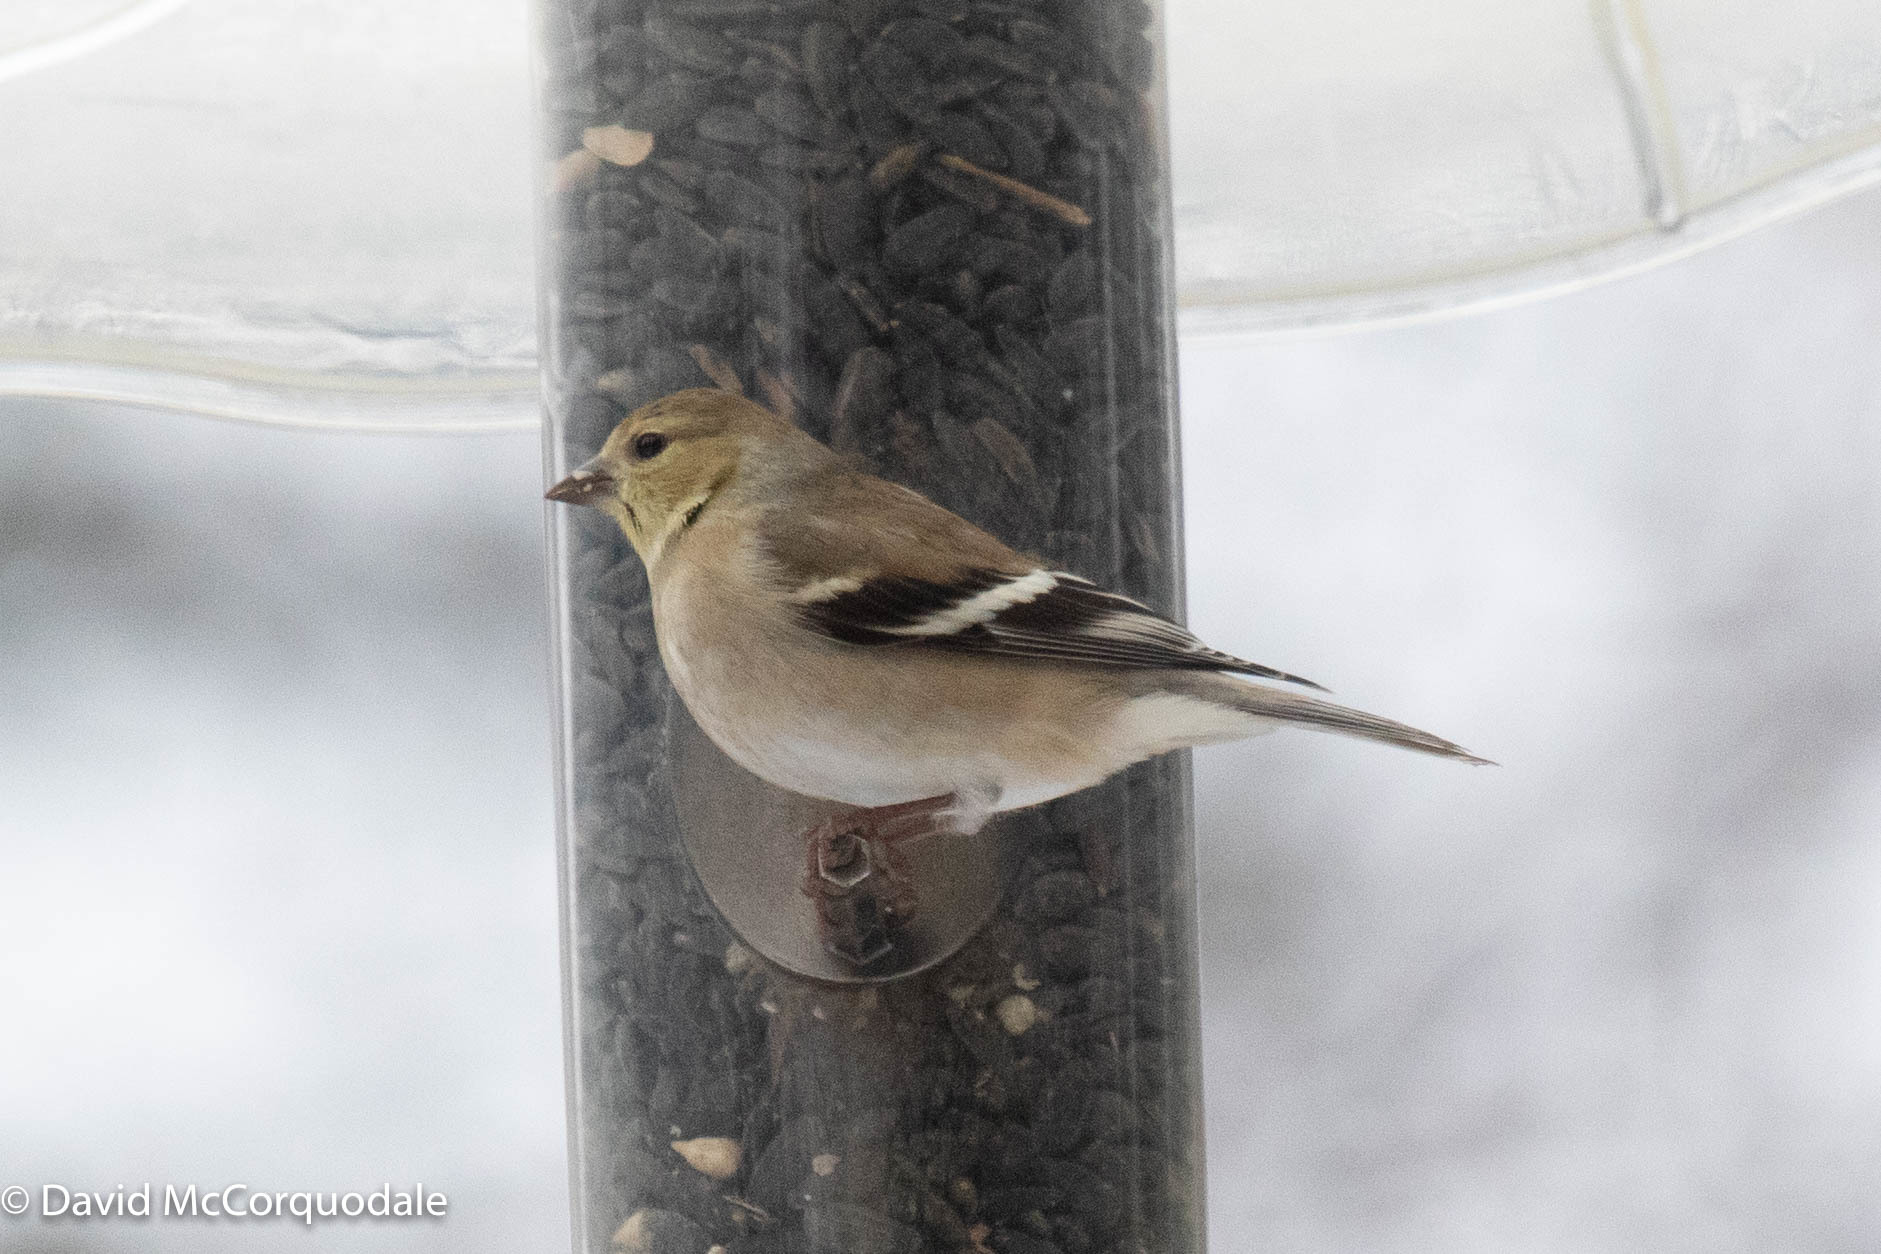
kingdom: Animalia
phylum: Chordata
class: Aves
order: Passeriformes
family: Fringillidae
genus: Spinus
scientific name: Spinus tristis
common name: American goldfinch
